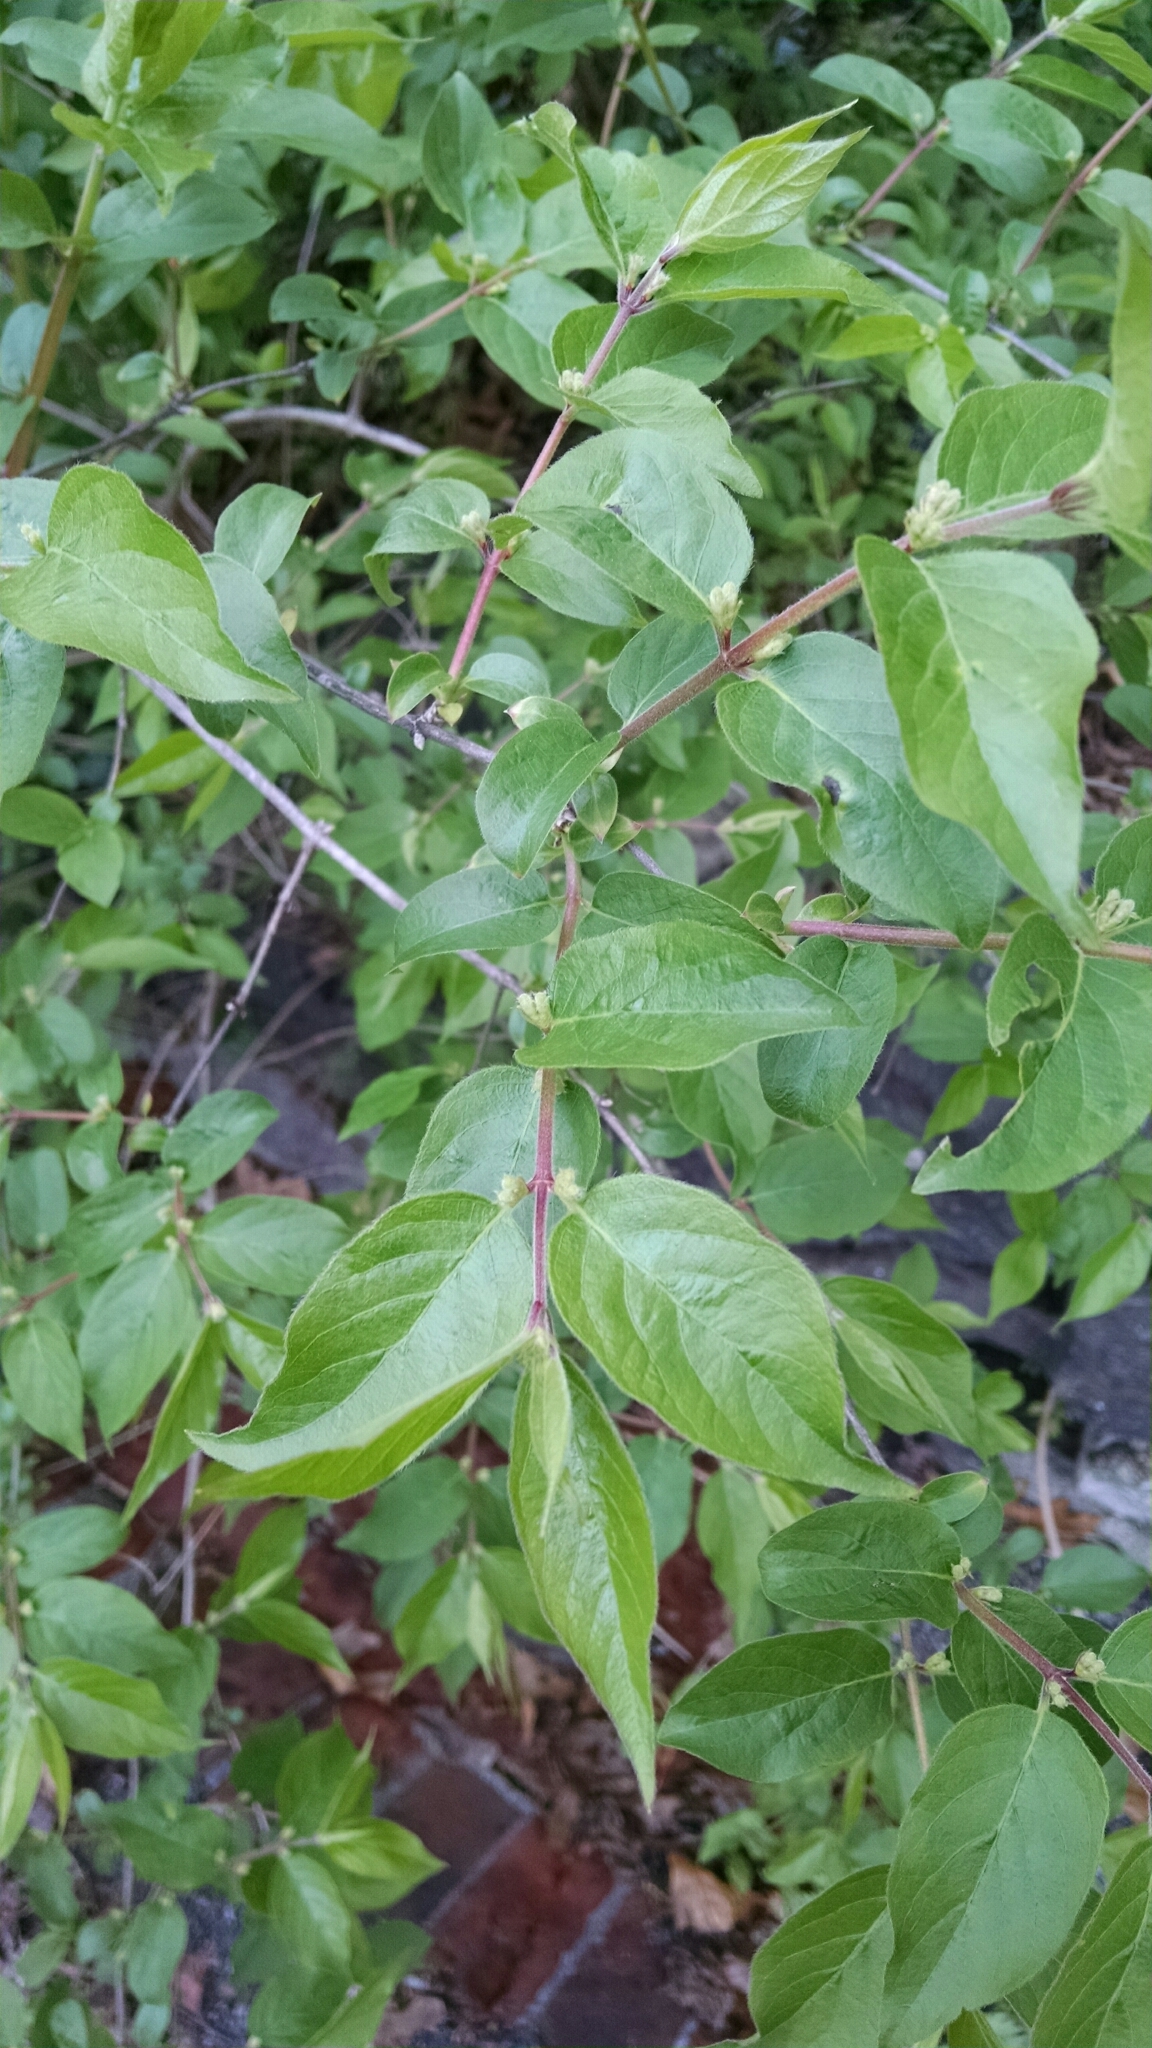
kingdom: Plantae
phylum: Tracheophyta
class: Magnoliopsida
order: Dipsacales
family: Caprifoliaceae
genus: Lonicera
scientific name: Lonicera maackii
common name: Amur honeysuckle
